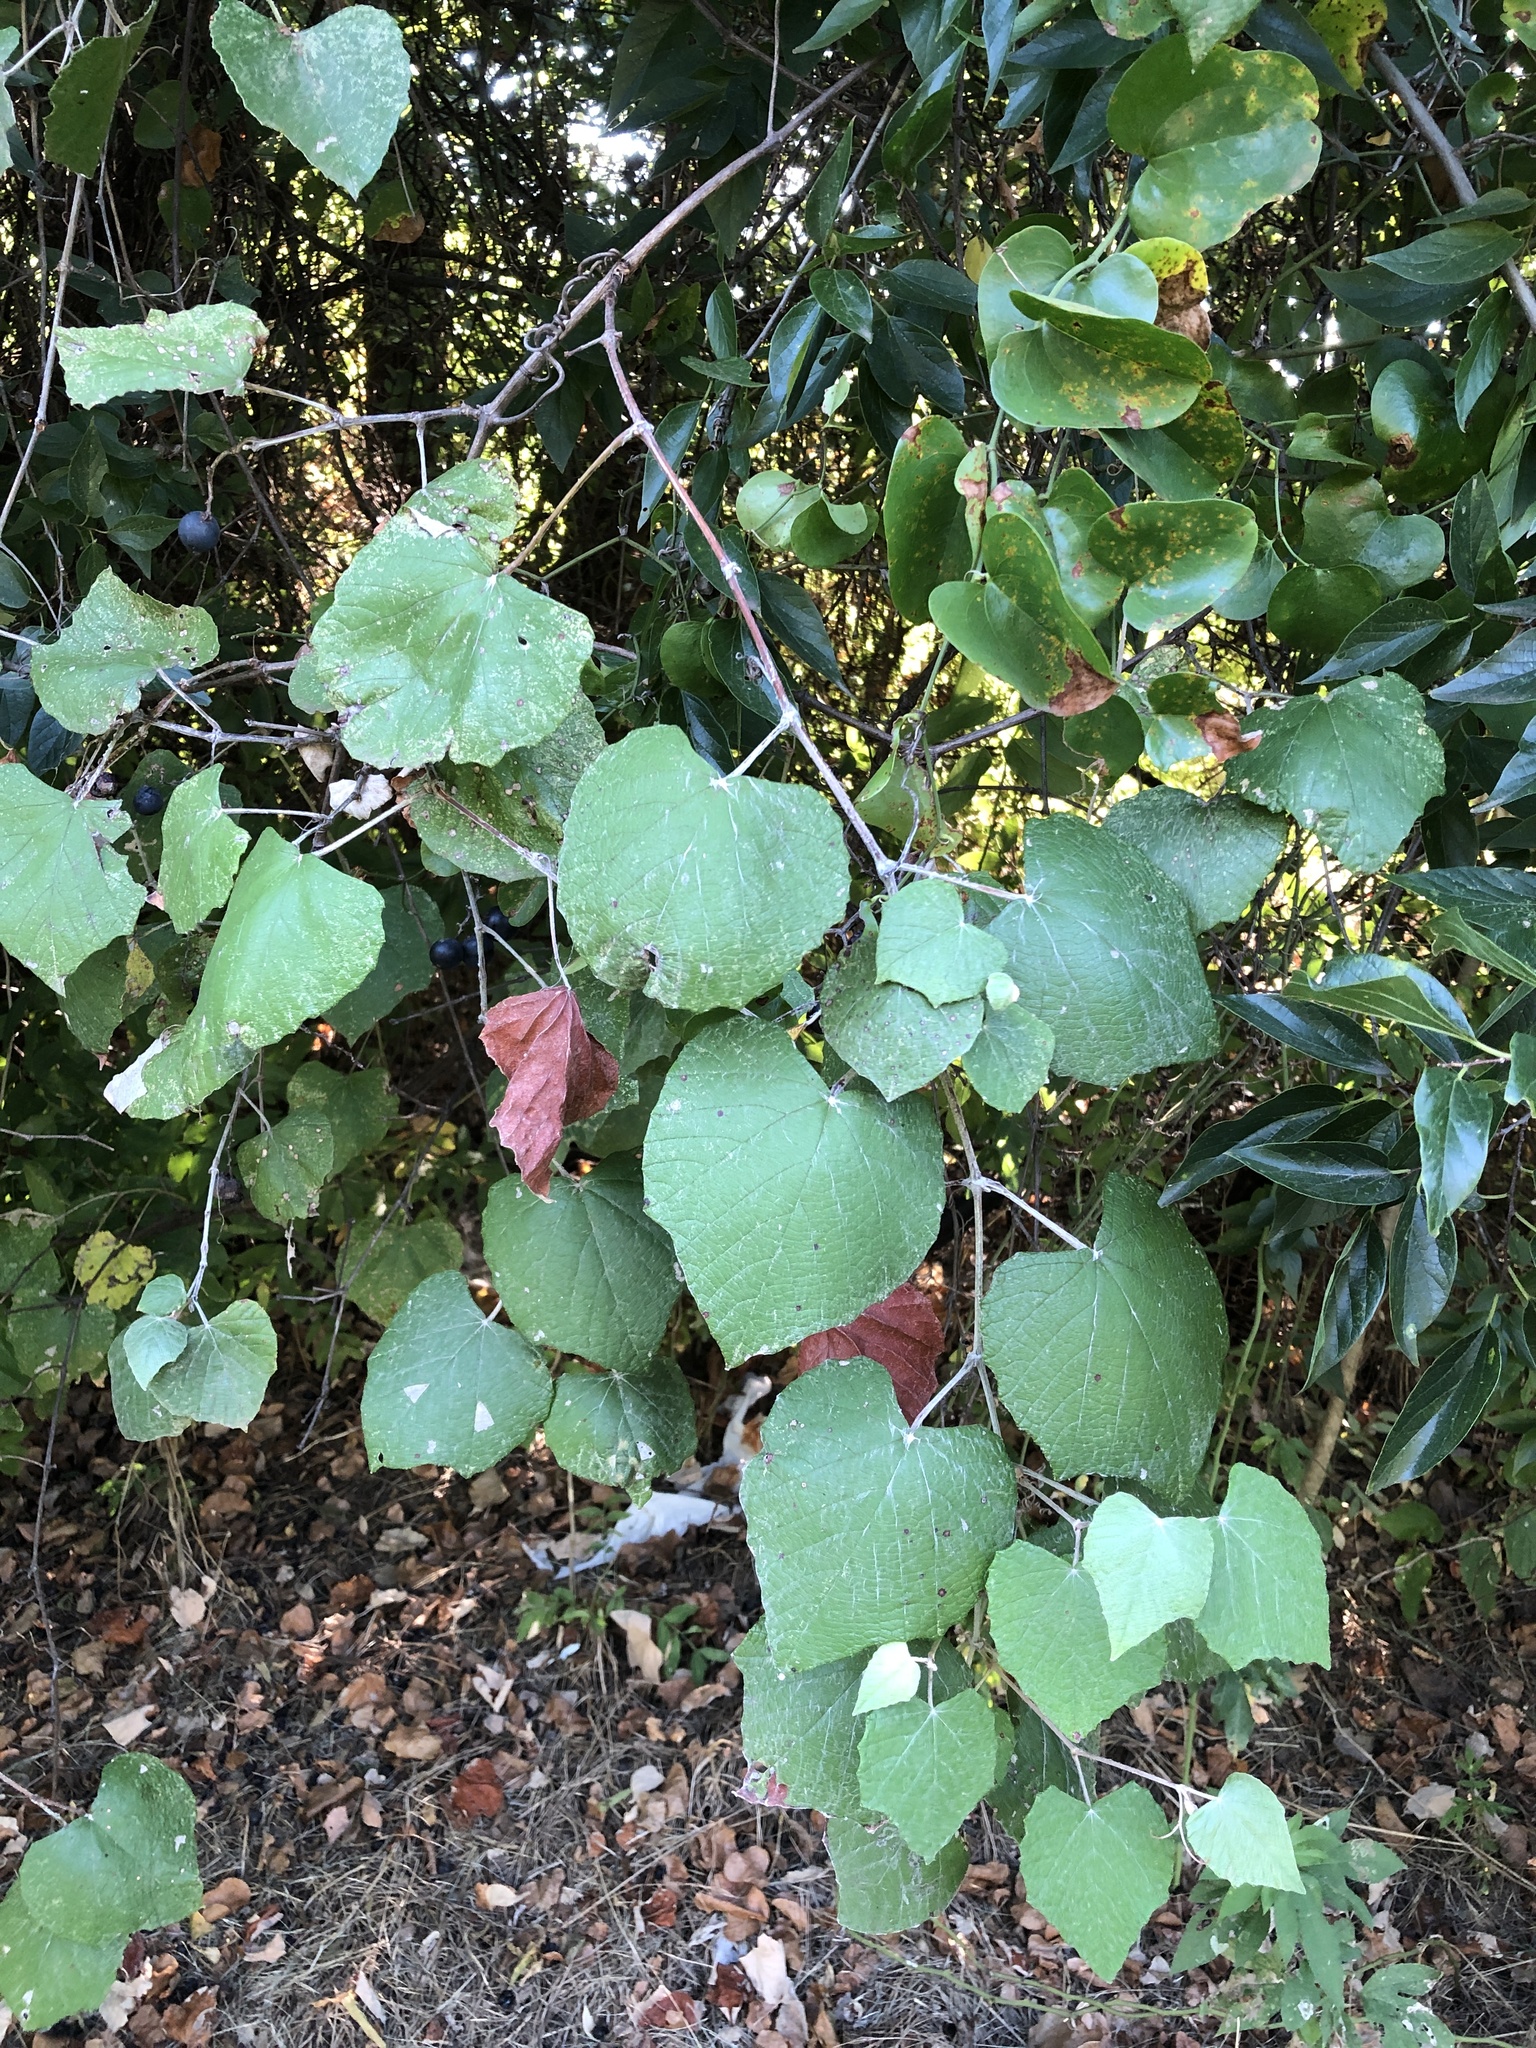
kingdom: Plantae
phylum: Tracheophyta
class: Magnoliopsida
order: Vitales
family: Vitaceae
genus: Vitis
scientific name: Vitis mustangensis
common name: Mustang grape
